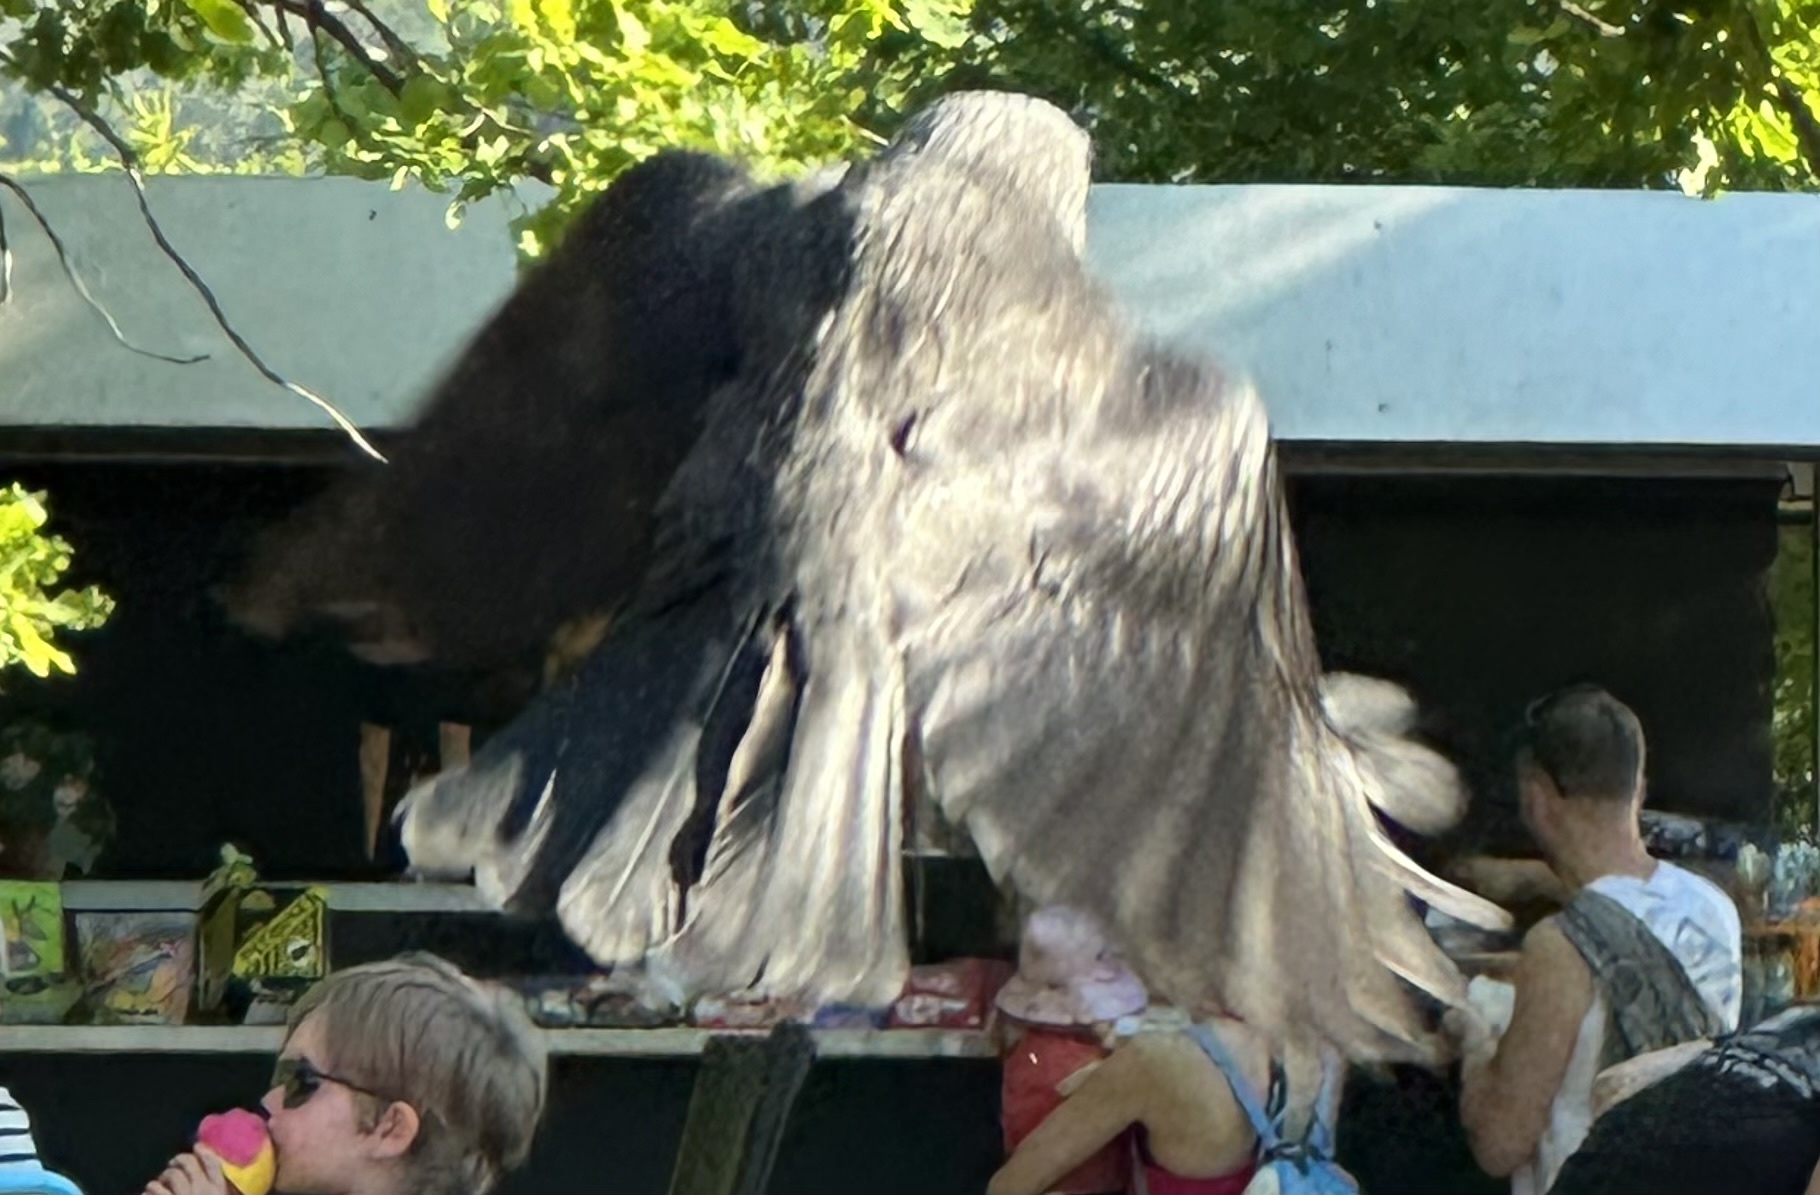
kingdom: Animalia
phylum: Chordata
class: Aves
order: Passeriformes
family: Corvidae
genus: Coloeus
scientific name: Coloeus monedula
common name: Western jackdaw
